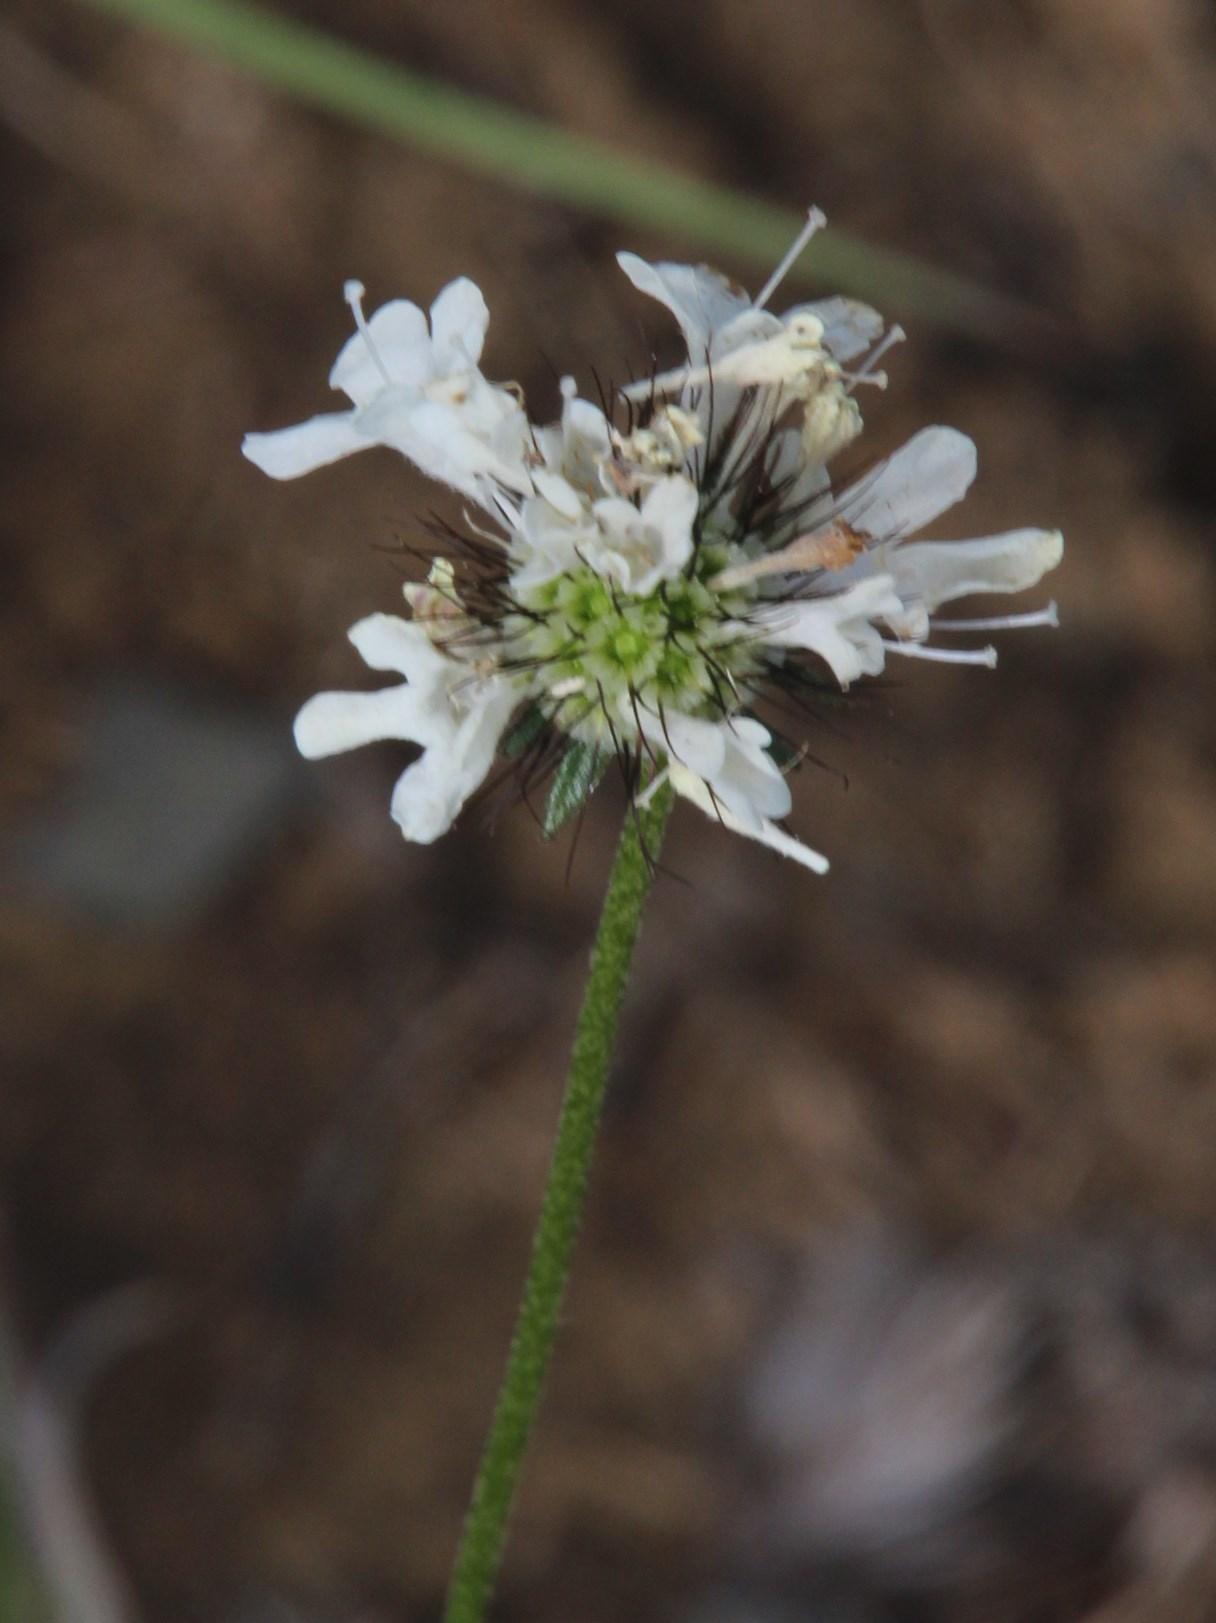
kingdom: Plantae
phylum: Tracheophyta
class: Magnoliopsida
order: Dipsacales
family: Caprifoliaceae
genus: Scabiosa
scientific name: Scabiosa columbaria
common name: Small scabious
